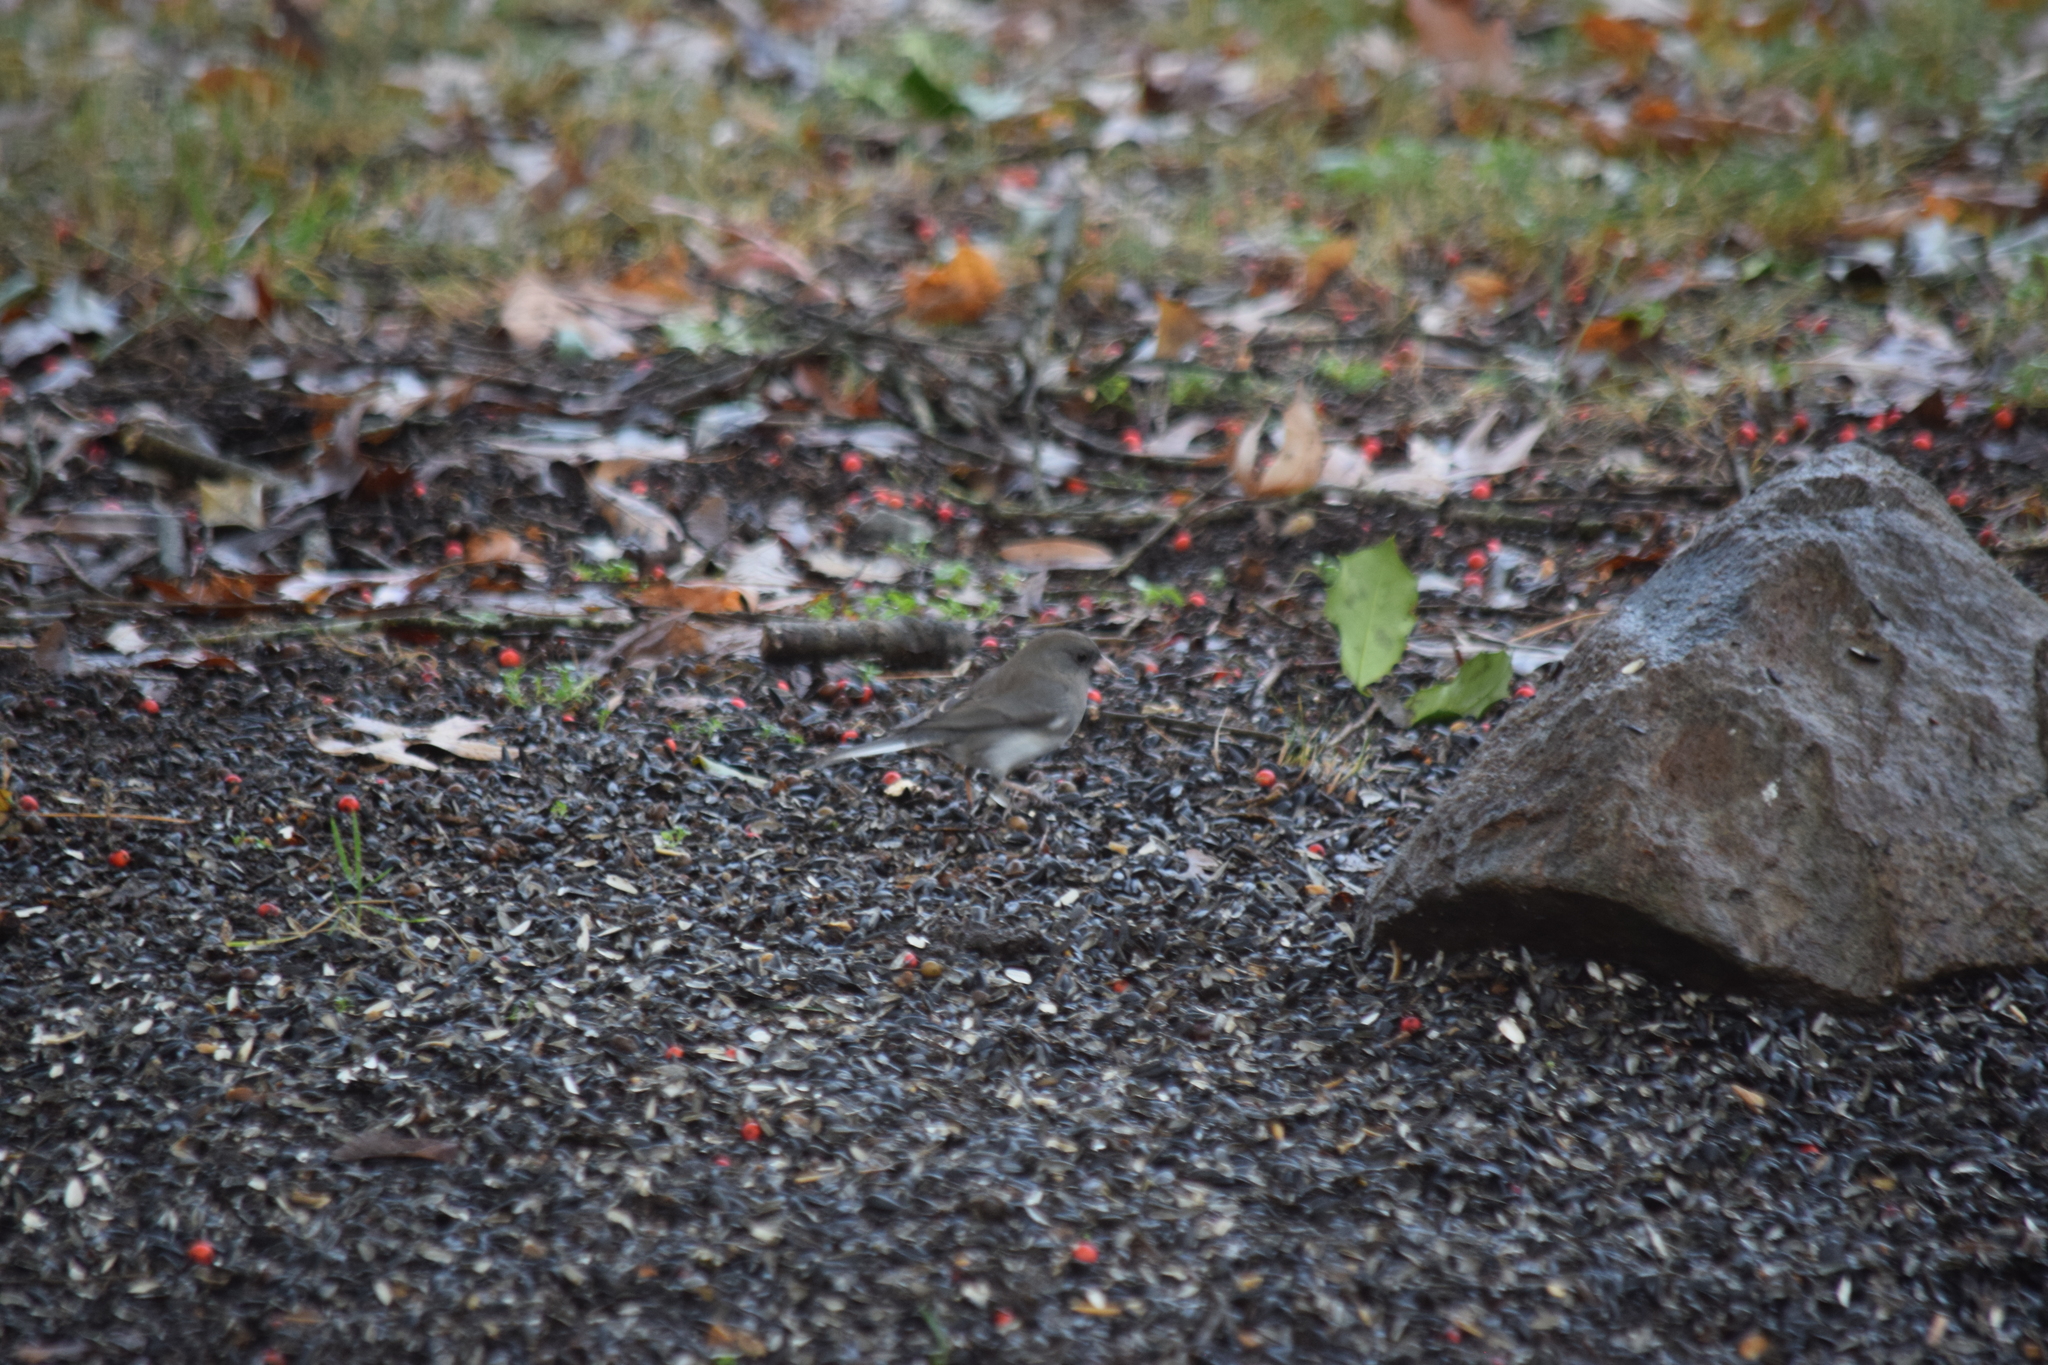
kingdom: Animalia
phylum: Chordata
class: Aves
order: Passeriformes
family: Passerellidae
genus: Junco
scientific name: Junco hyemalis
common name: Dark-eyed junco
